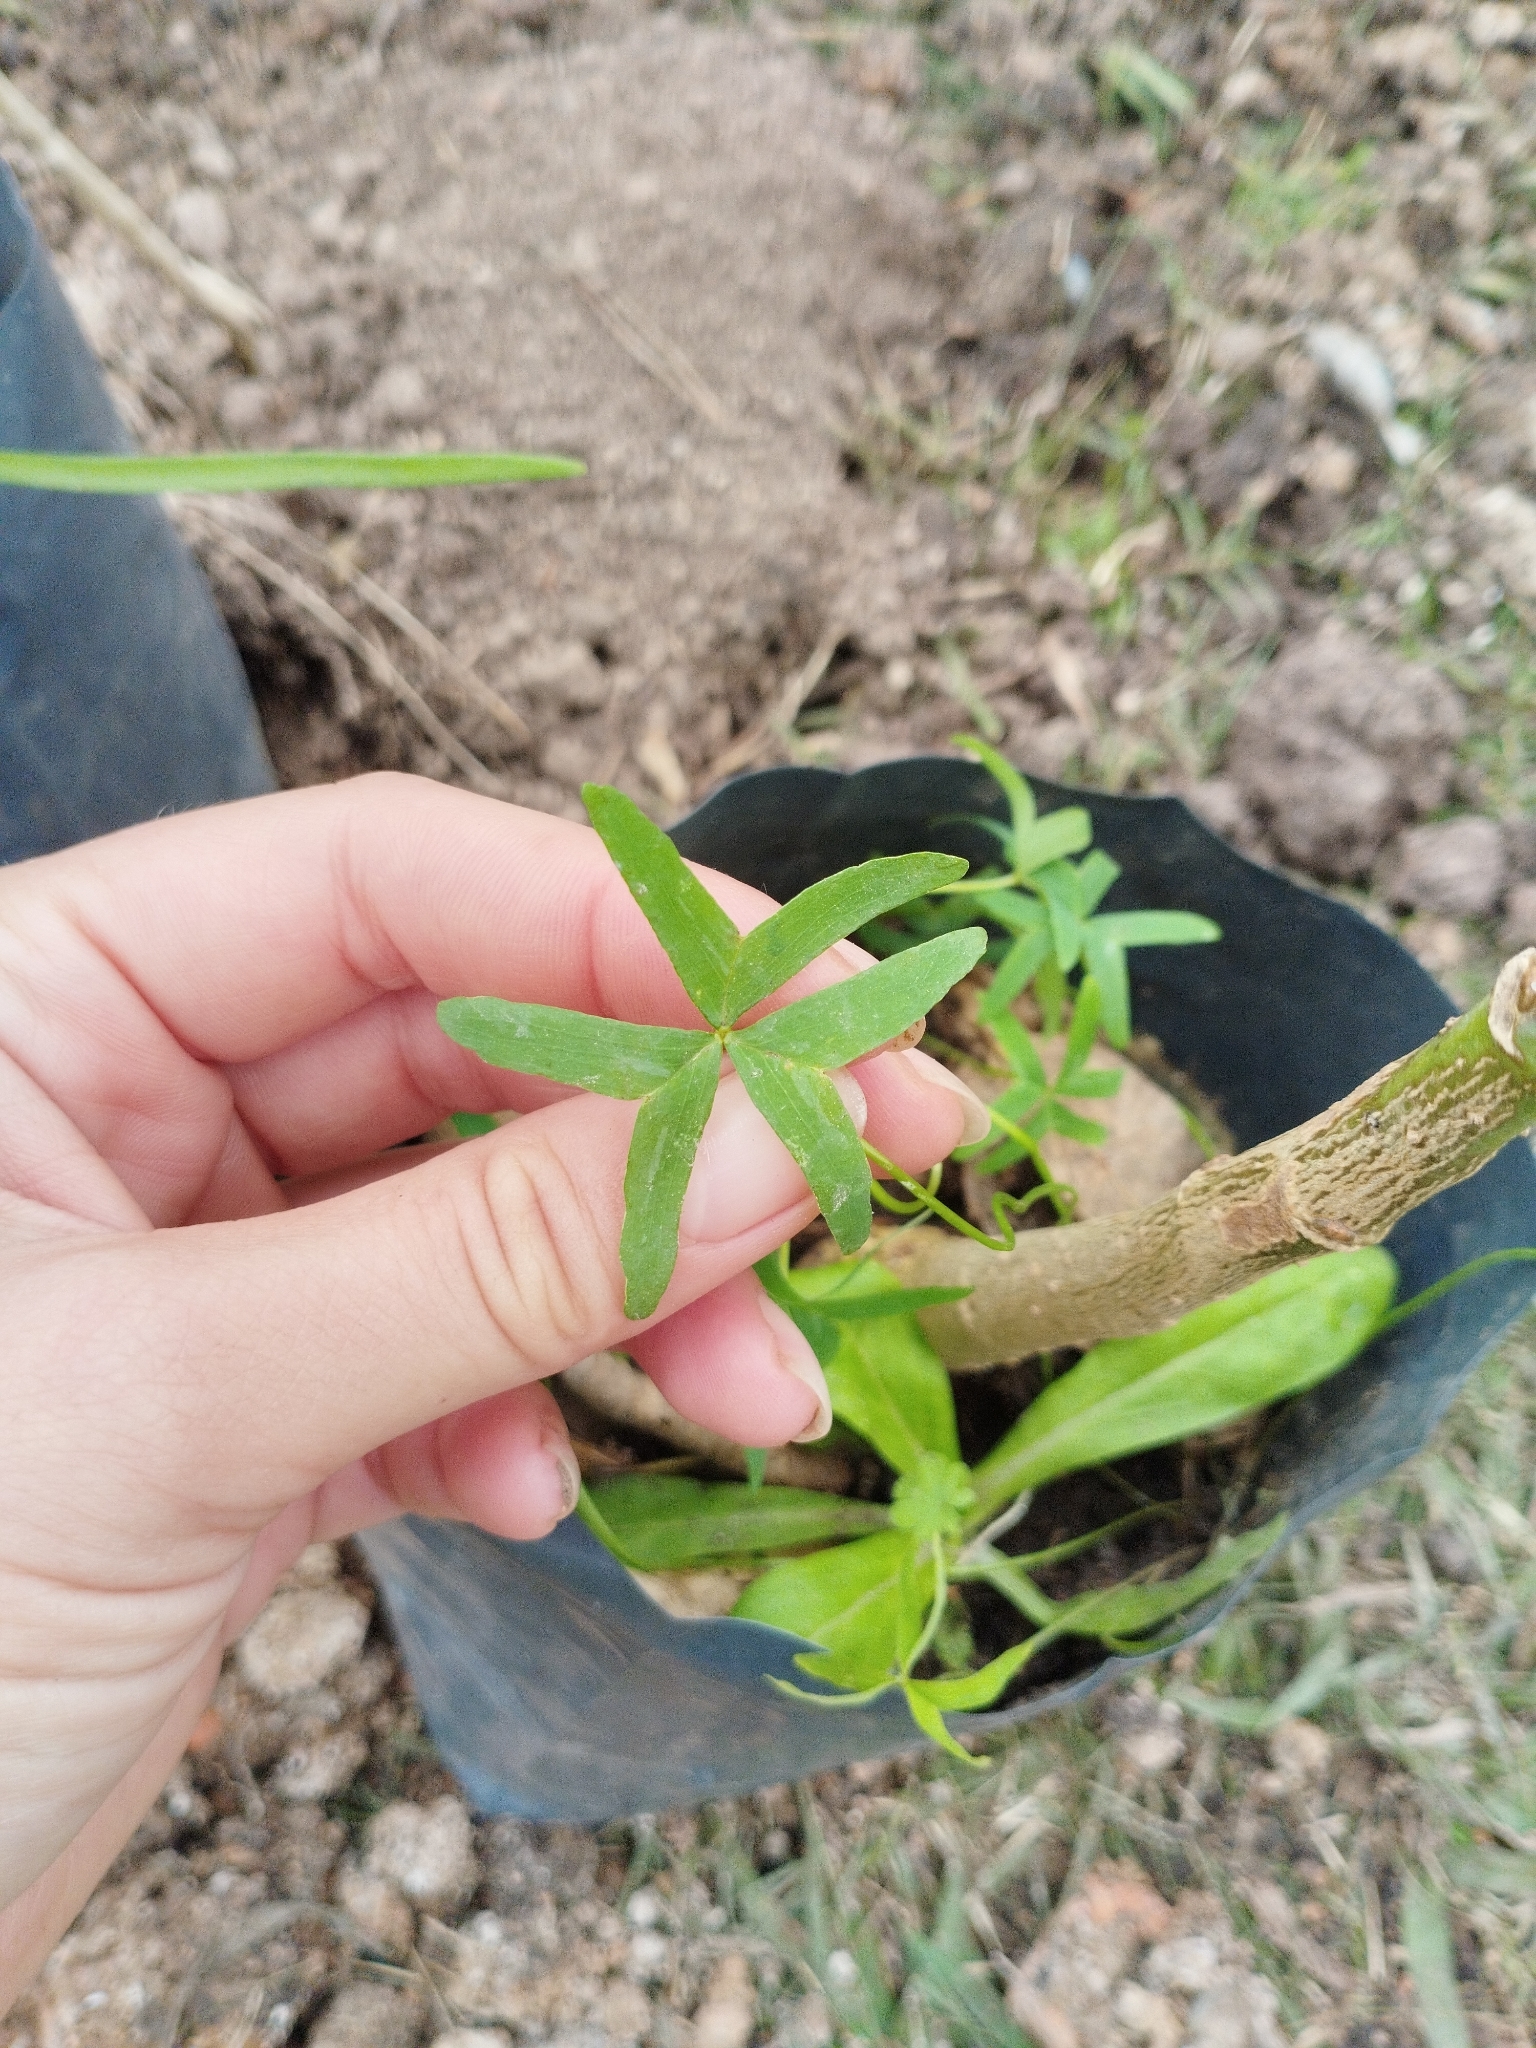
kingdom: Plantae
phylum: Tracheophyta
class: Magnoliopsida
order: Oxalidales
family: Oxalidaceae
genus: Oxalis
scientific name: Oxalis bipartita
